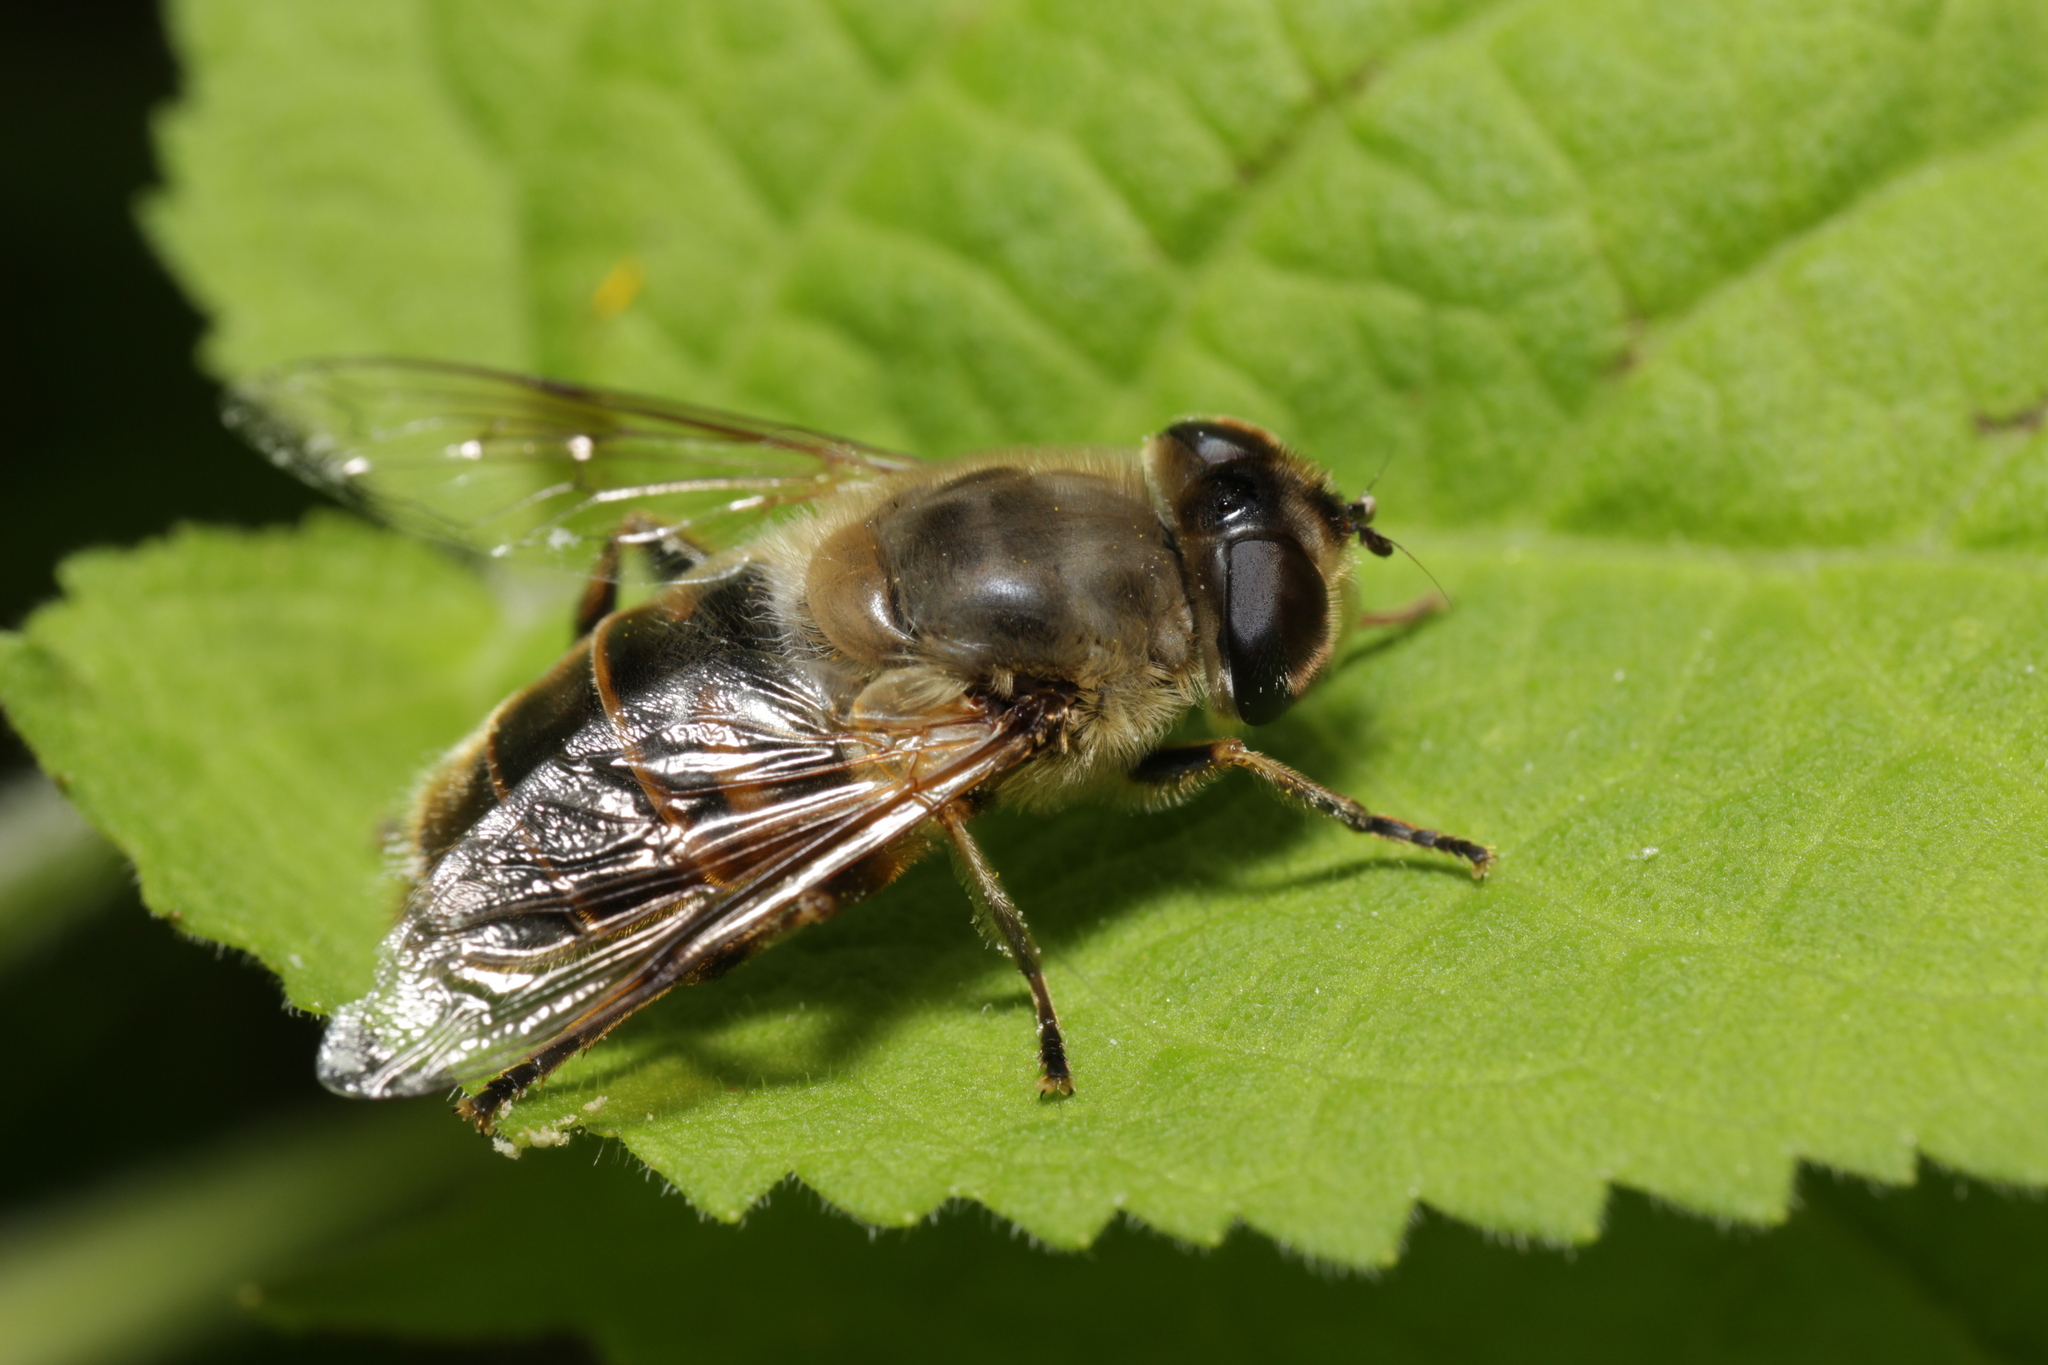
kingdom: Animalia
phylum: Arthropoda
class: Insecta
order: Diptera
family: Syrphidae
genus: Eristalis
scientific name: Eristalis tenax
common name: Drone fly
